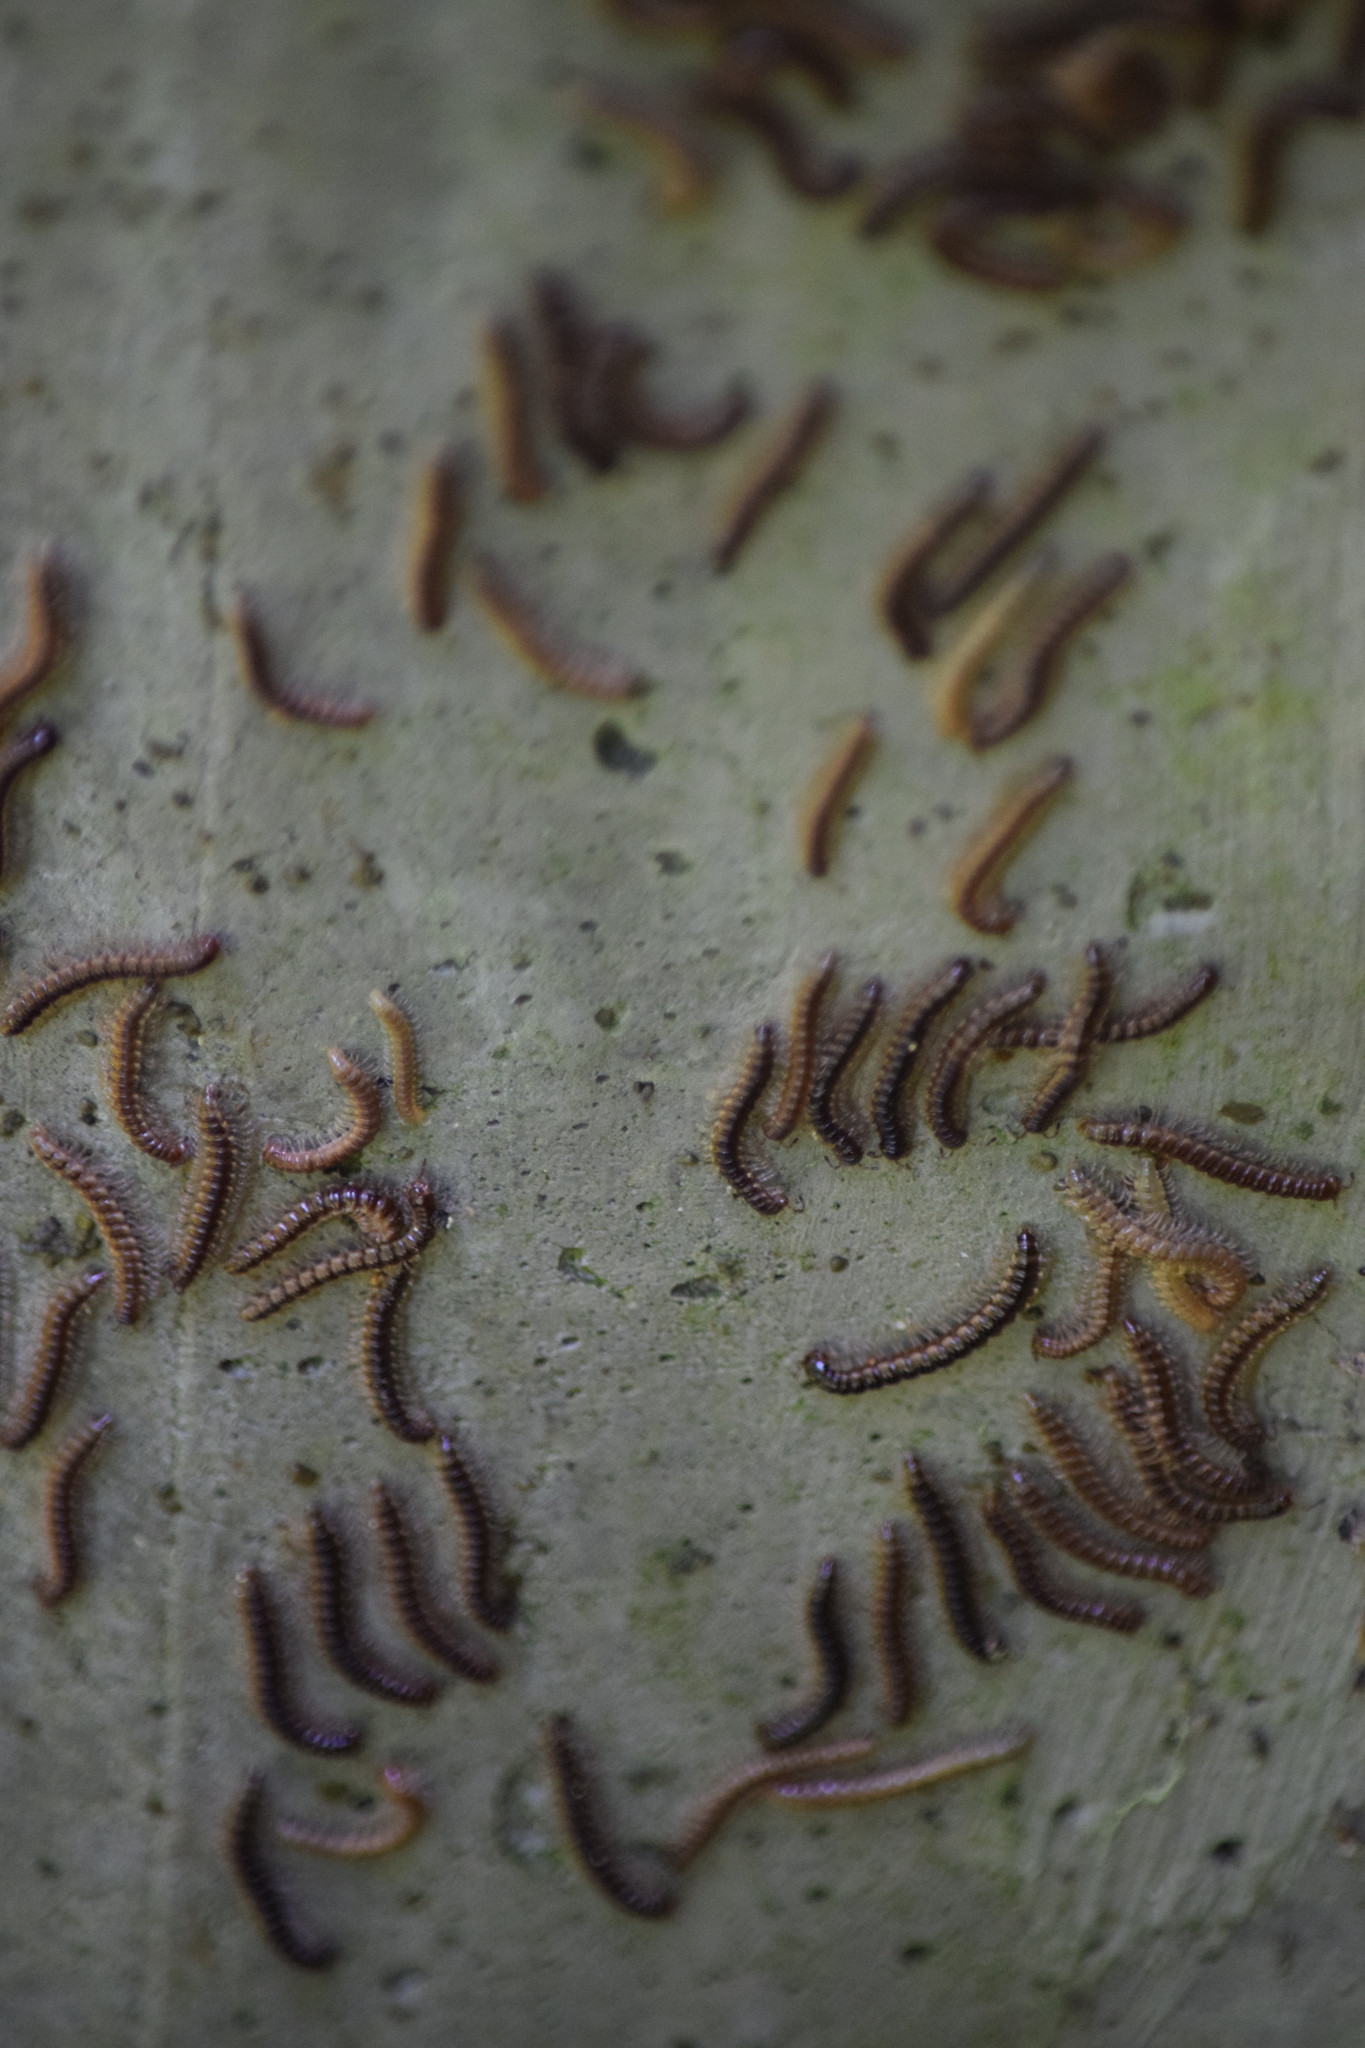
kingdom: Animalia
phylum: Arthropoda
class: Diplopoda
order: Polydesmida
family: Paradoxosomatidae
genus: Oxidus
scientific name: Oxidus gracilis
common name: Greenhouse millipede
